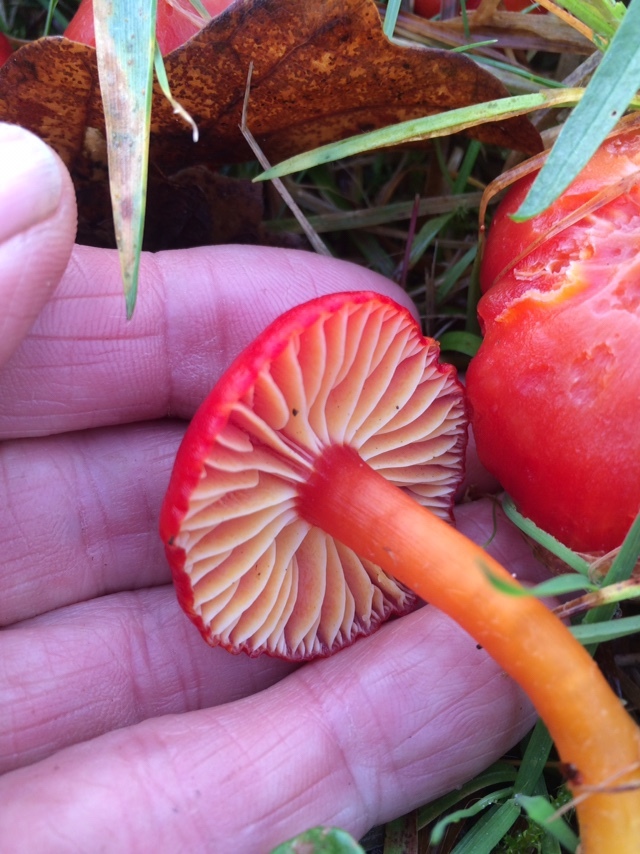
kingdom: Fungi
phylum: Basidiomycota
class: Agaricomycetes
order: Agaricales
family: Hygrophoraceae
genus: Hygrocybe
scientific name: Hygrocybe coccinea
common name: Scarlet hood
